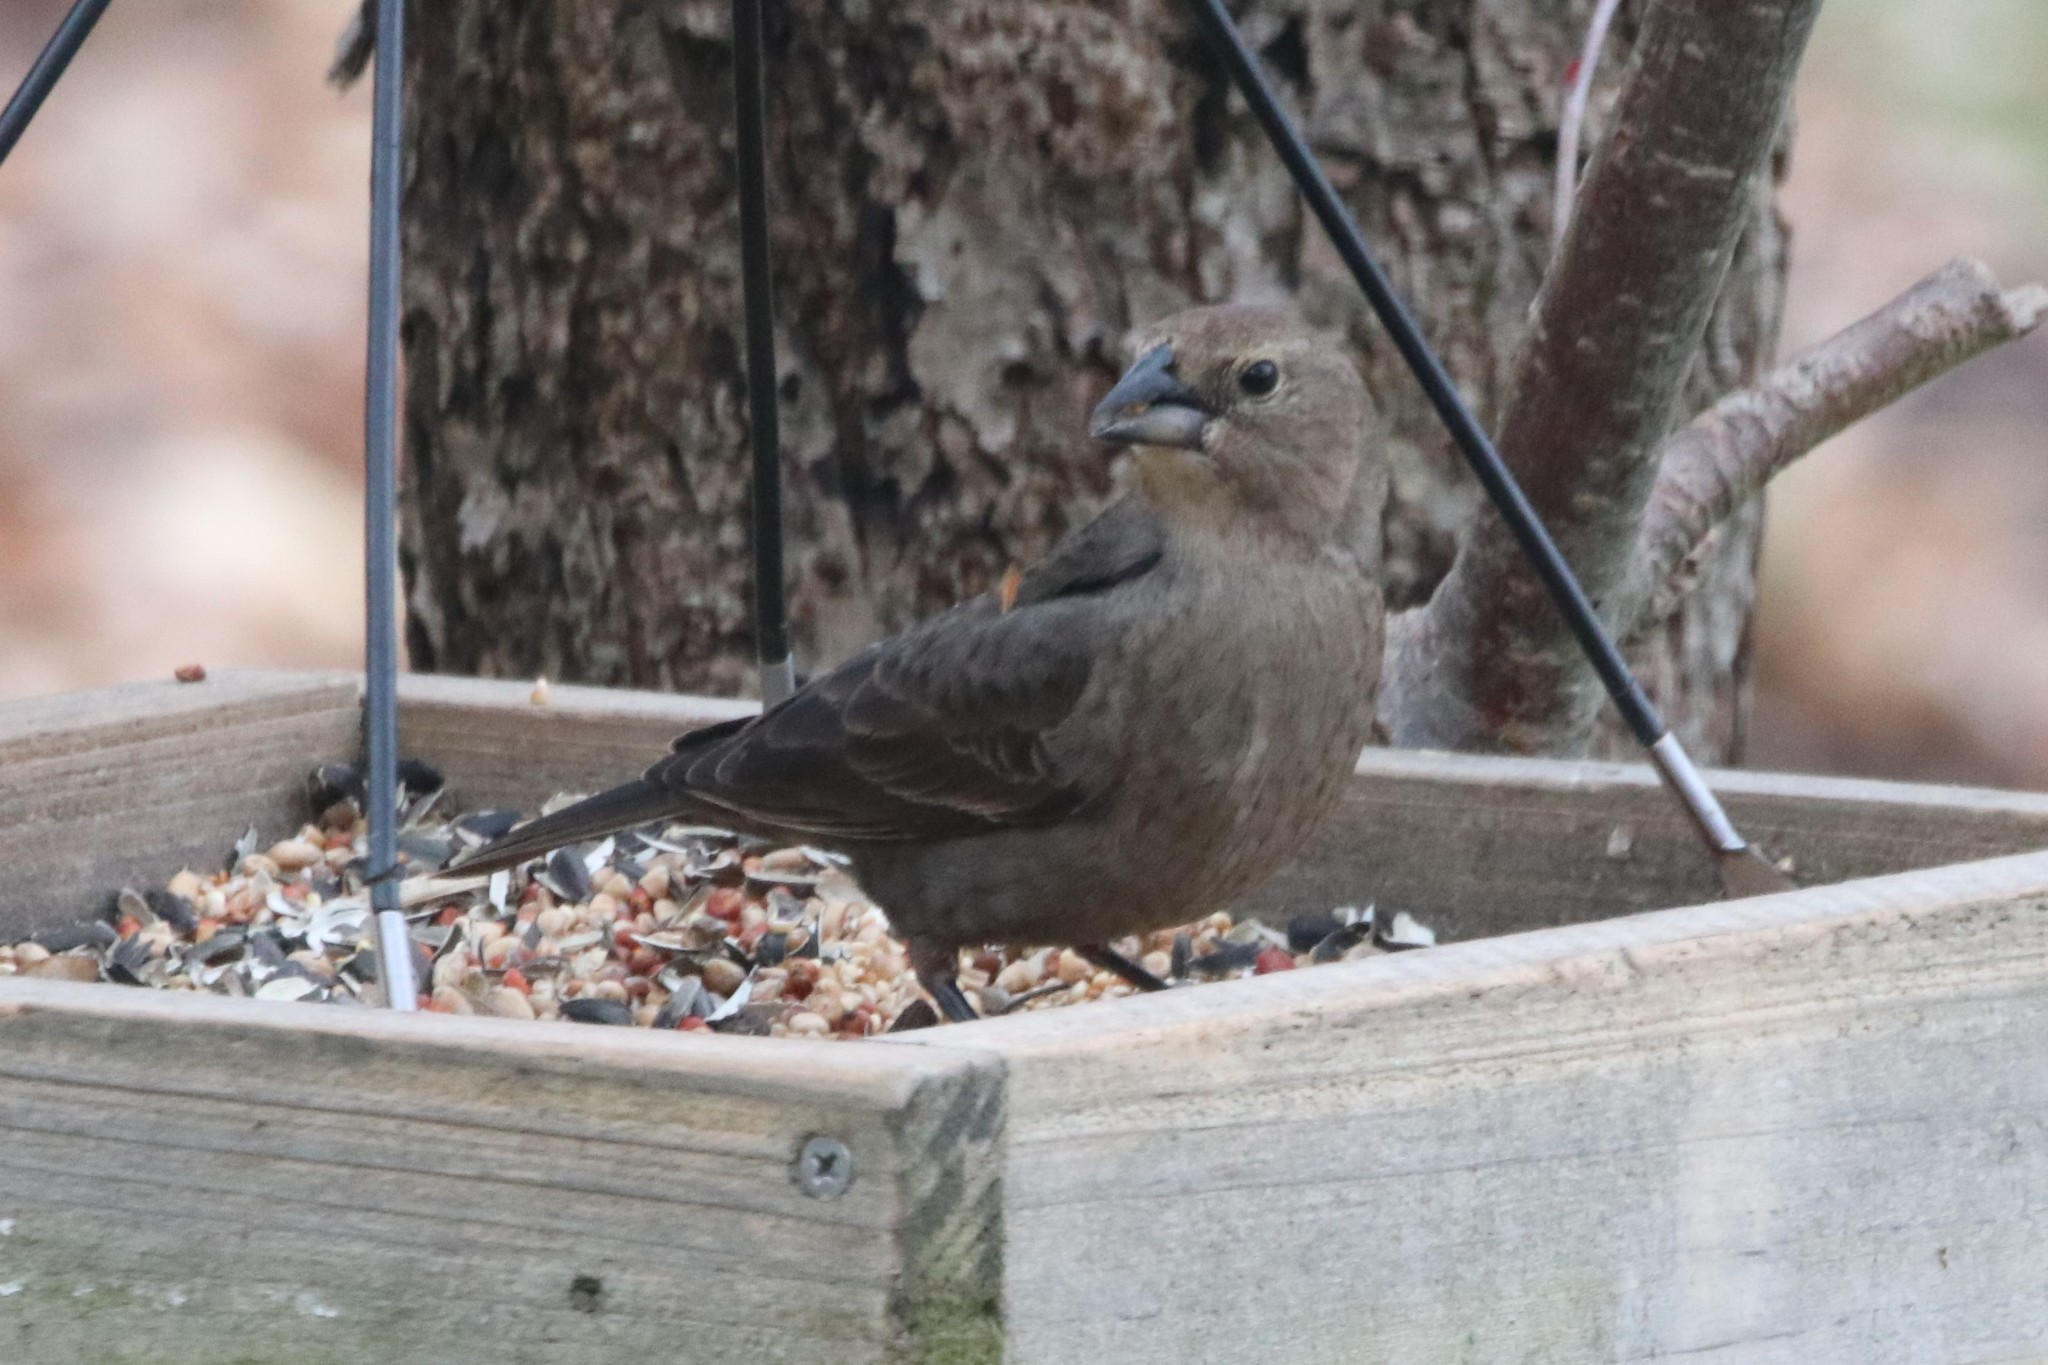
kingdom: Animalia
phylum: Chordata
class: Aves
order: Passeriformes
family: Icteridae
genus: Molothrus
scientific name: Molothrus ater
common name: Brown-headed cowbird
